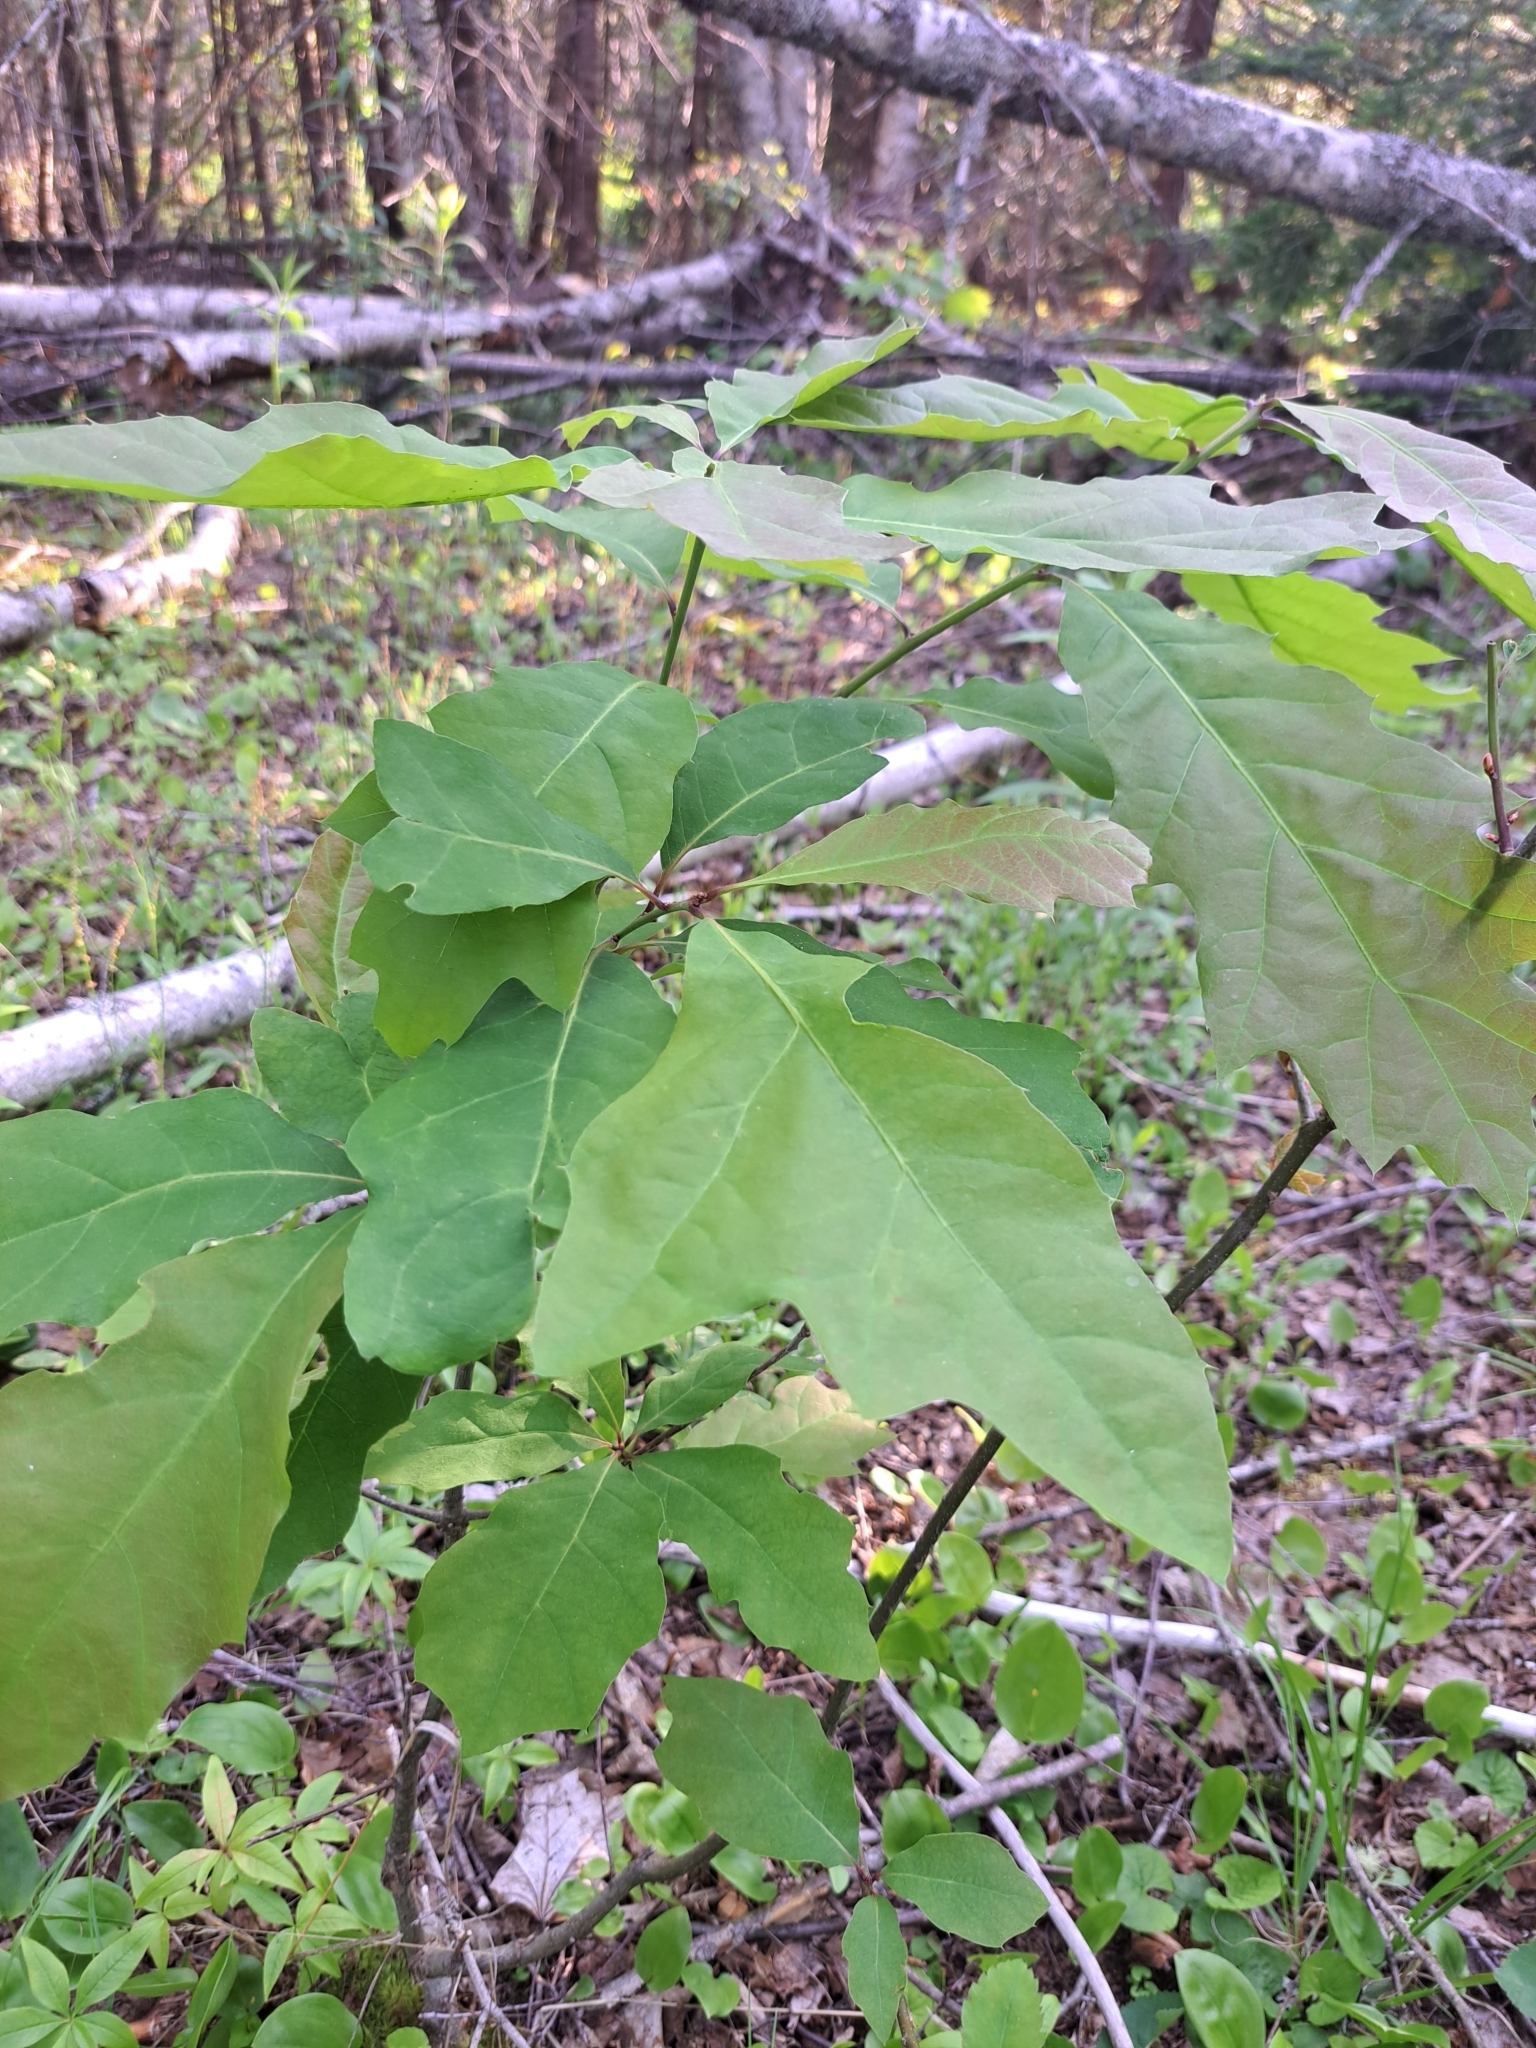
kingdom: Plantae
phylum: Tracheophyta
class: Magnoliopsida
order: Fagales
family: Fagaceae
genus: Quercus
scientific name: Quercus rubra
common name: Red oak
